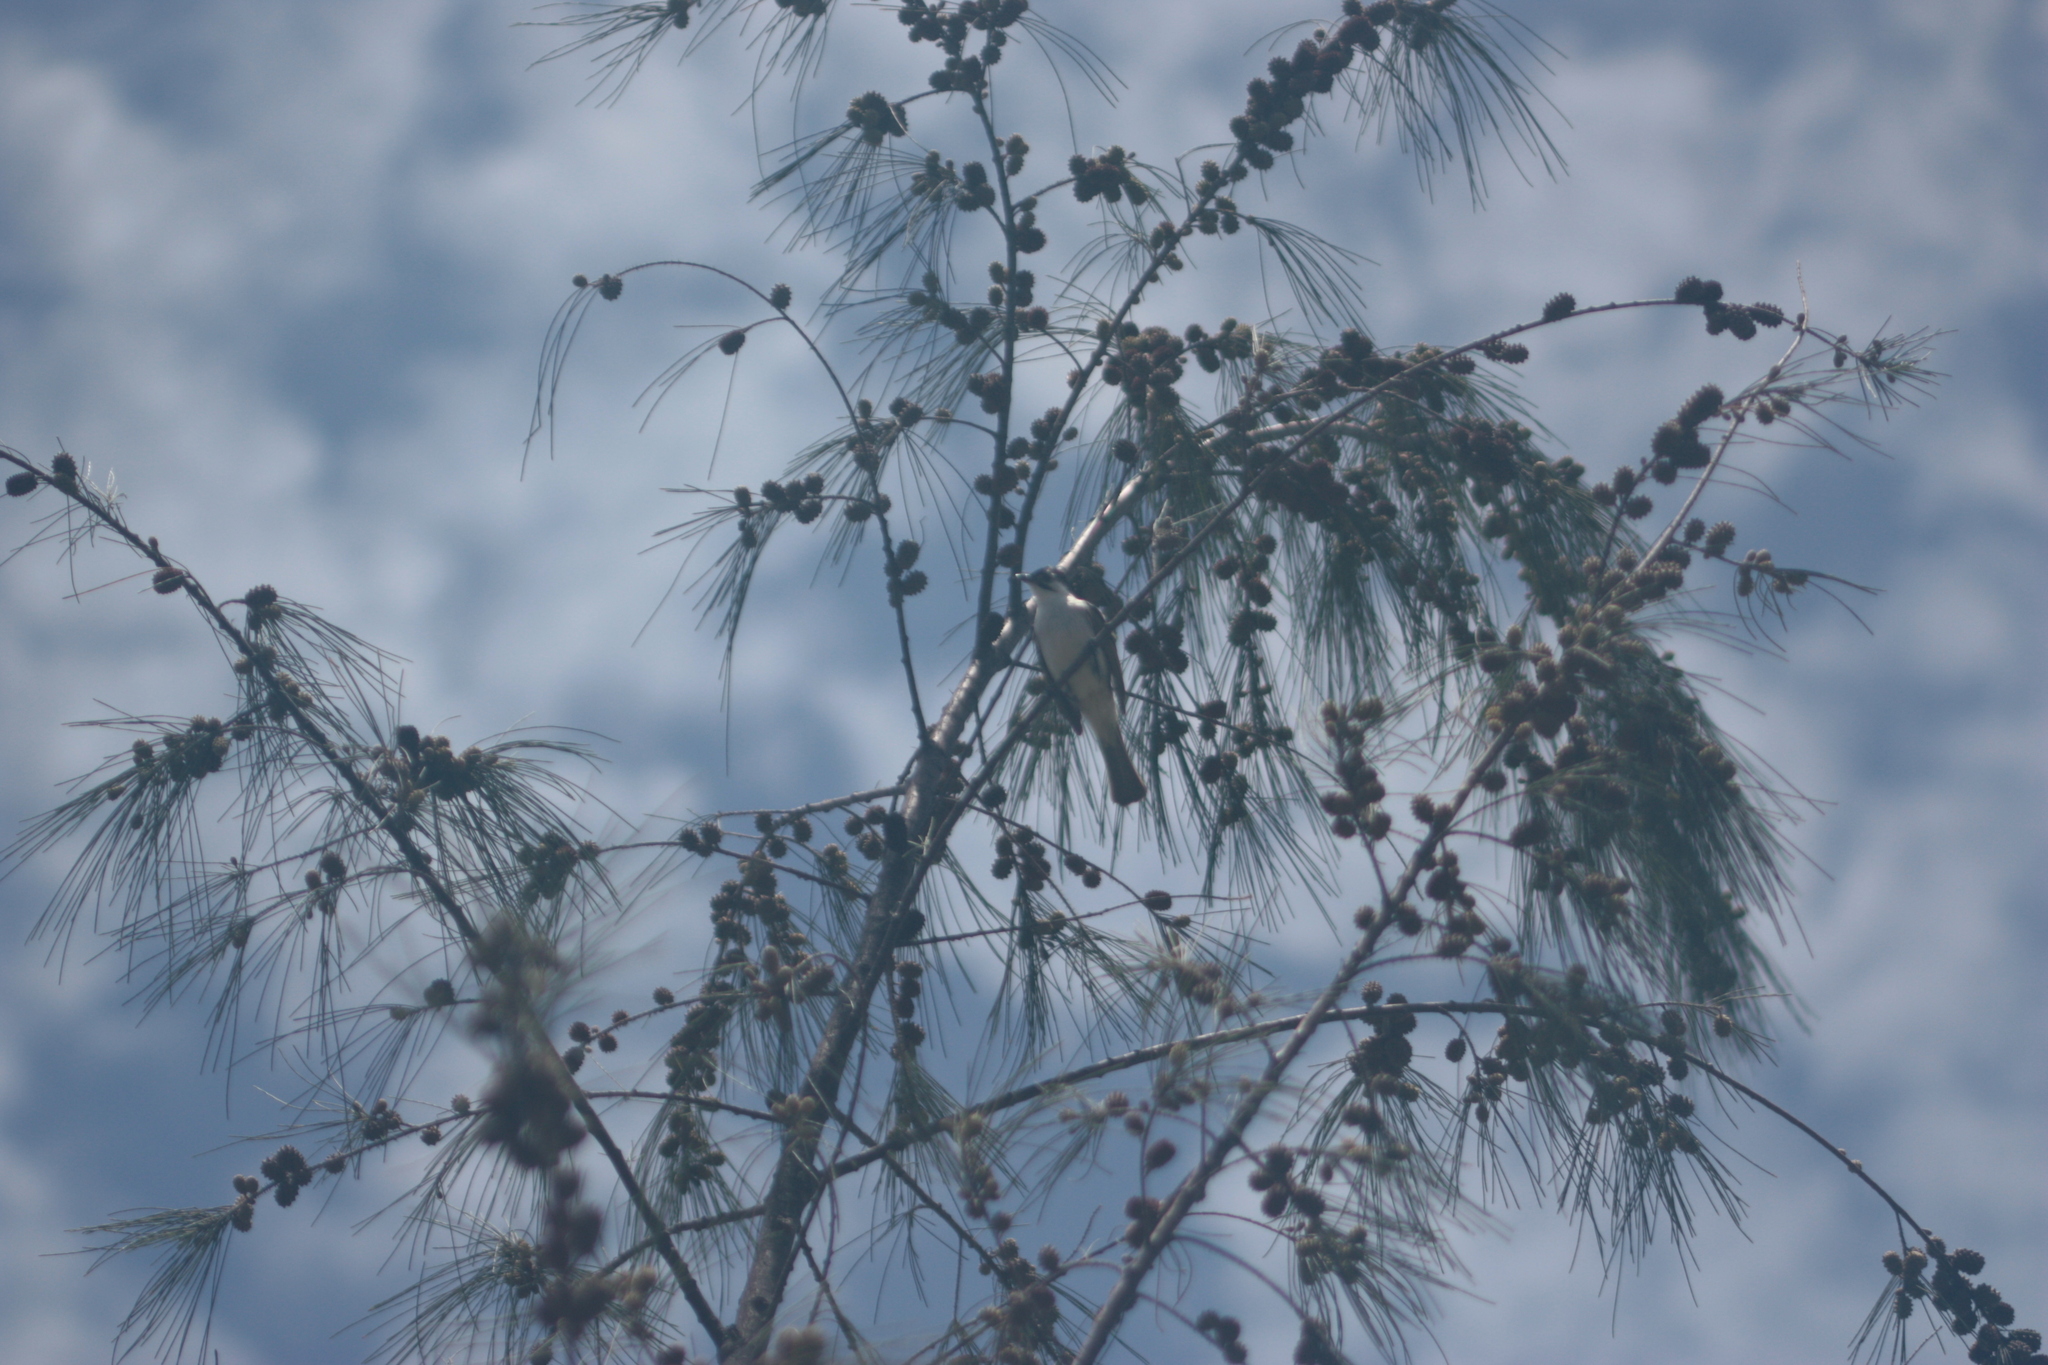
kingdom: Animalia
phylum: Chordata
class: Aves
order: Passeriformes
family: Pycnonotidae
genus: Pycnonotus
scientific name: Pycnonotus taivanus
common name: Styan's bulbul
